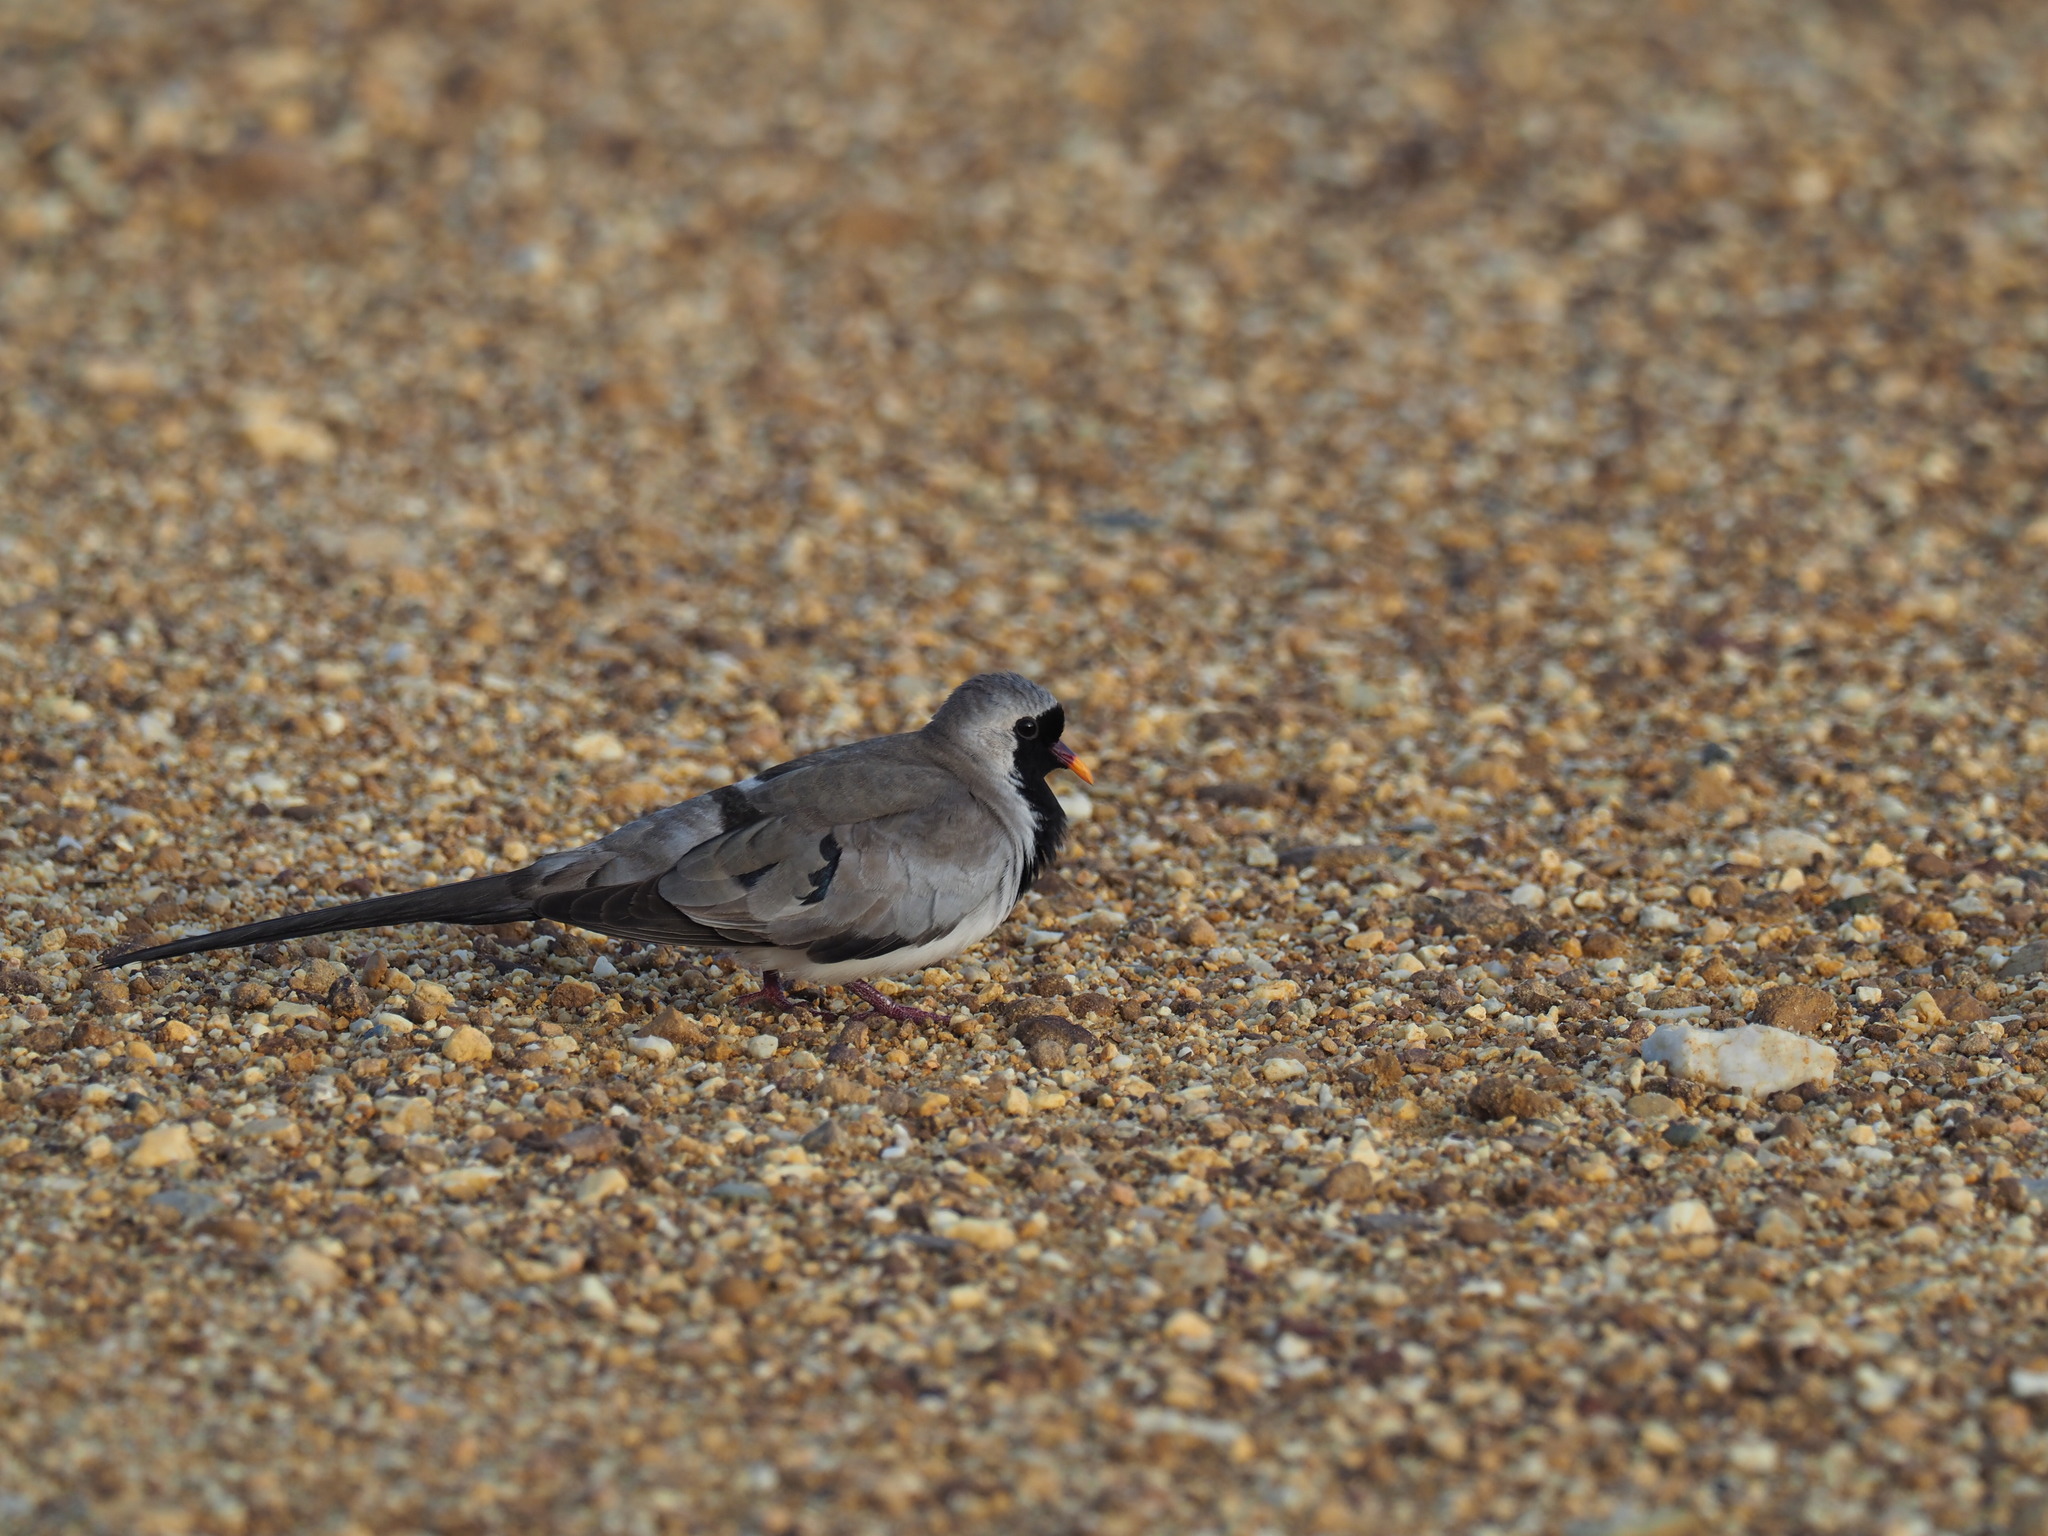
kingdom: Animalia
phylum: Chordata
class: Aves
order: Columbiformes
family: Columbidae
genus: Oena
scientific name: Oena capensis
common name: Namaqua dove
